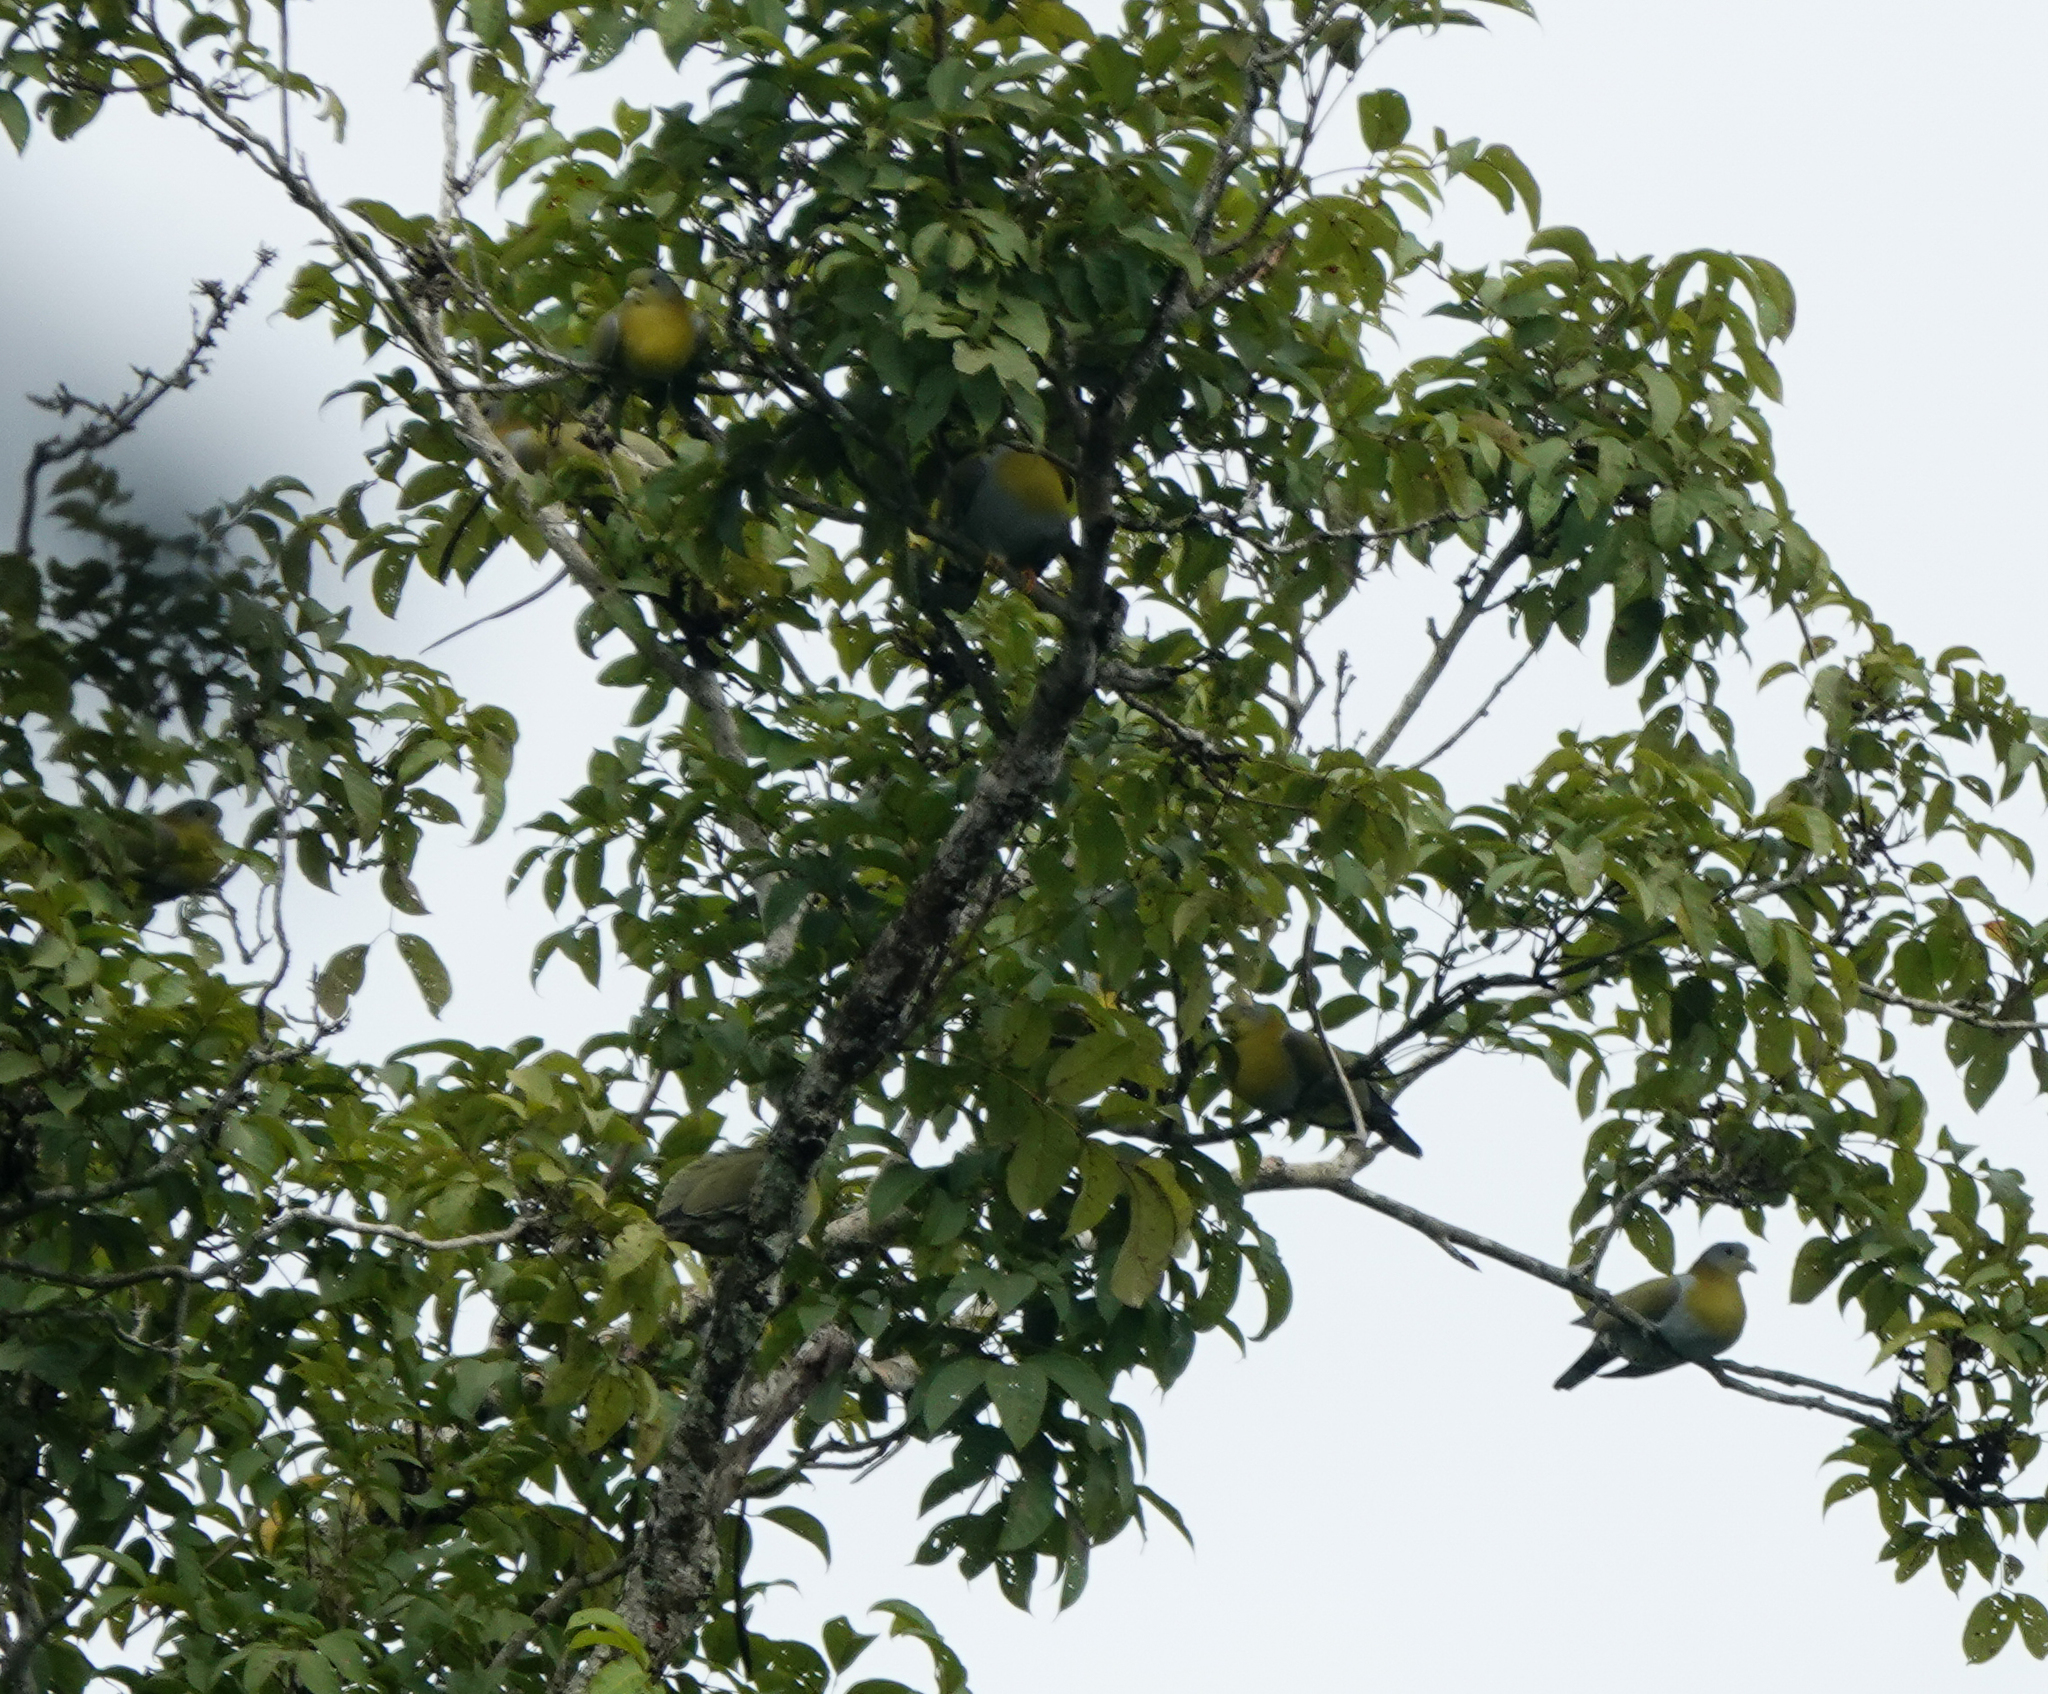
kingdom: Animalia
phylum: Chordata
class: Aves
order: Columbiformes
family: Columbidae
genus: Treron
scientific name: Treron phoenicopterus
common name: Yellow-footed green pigeon
